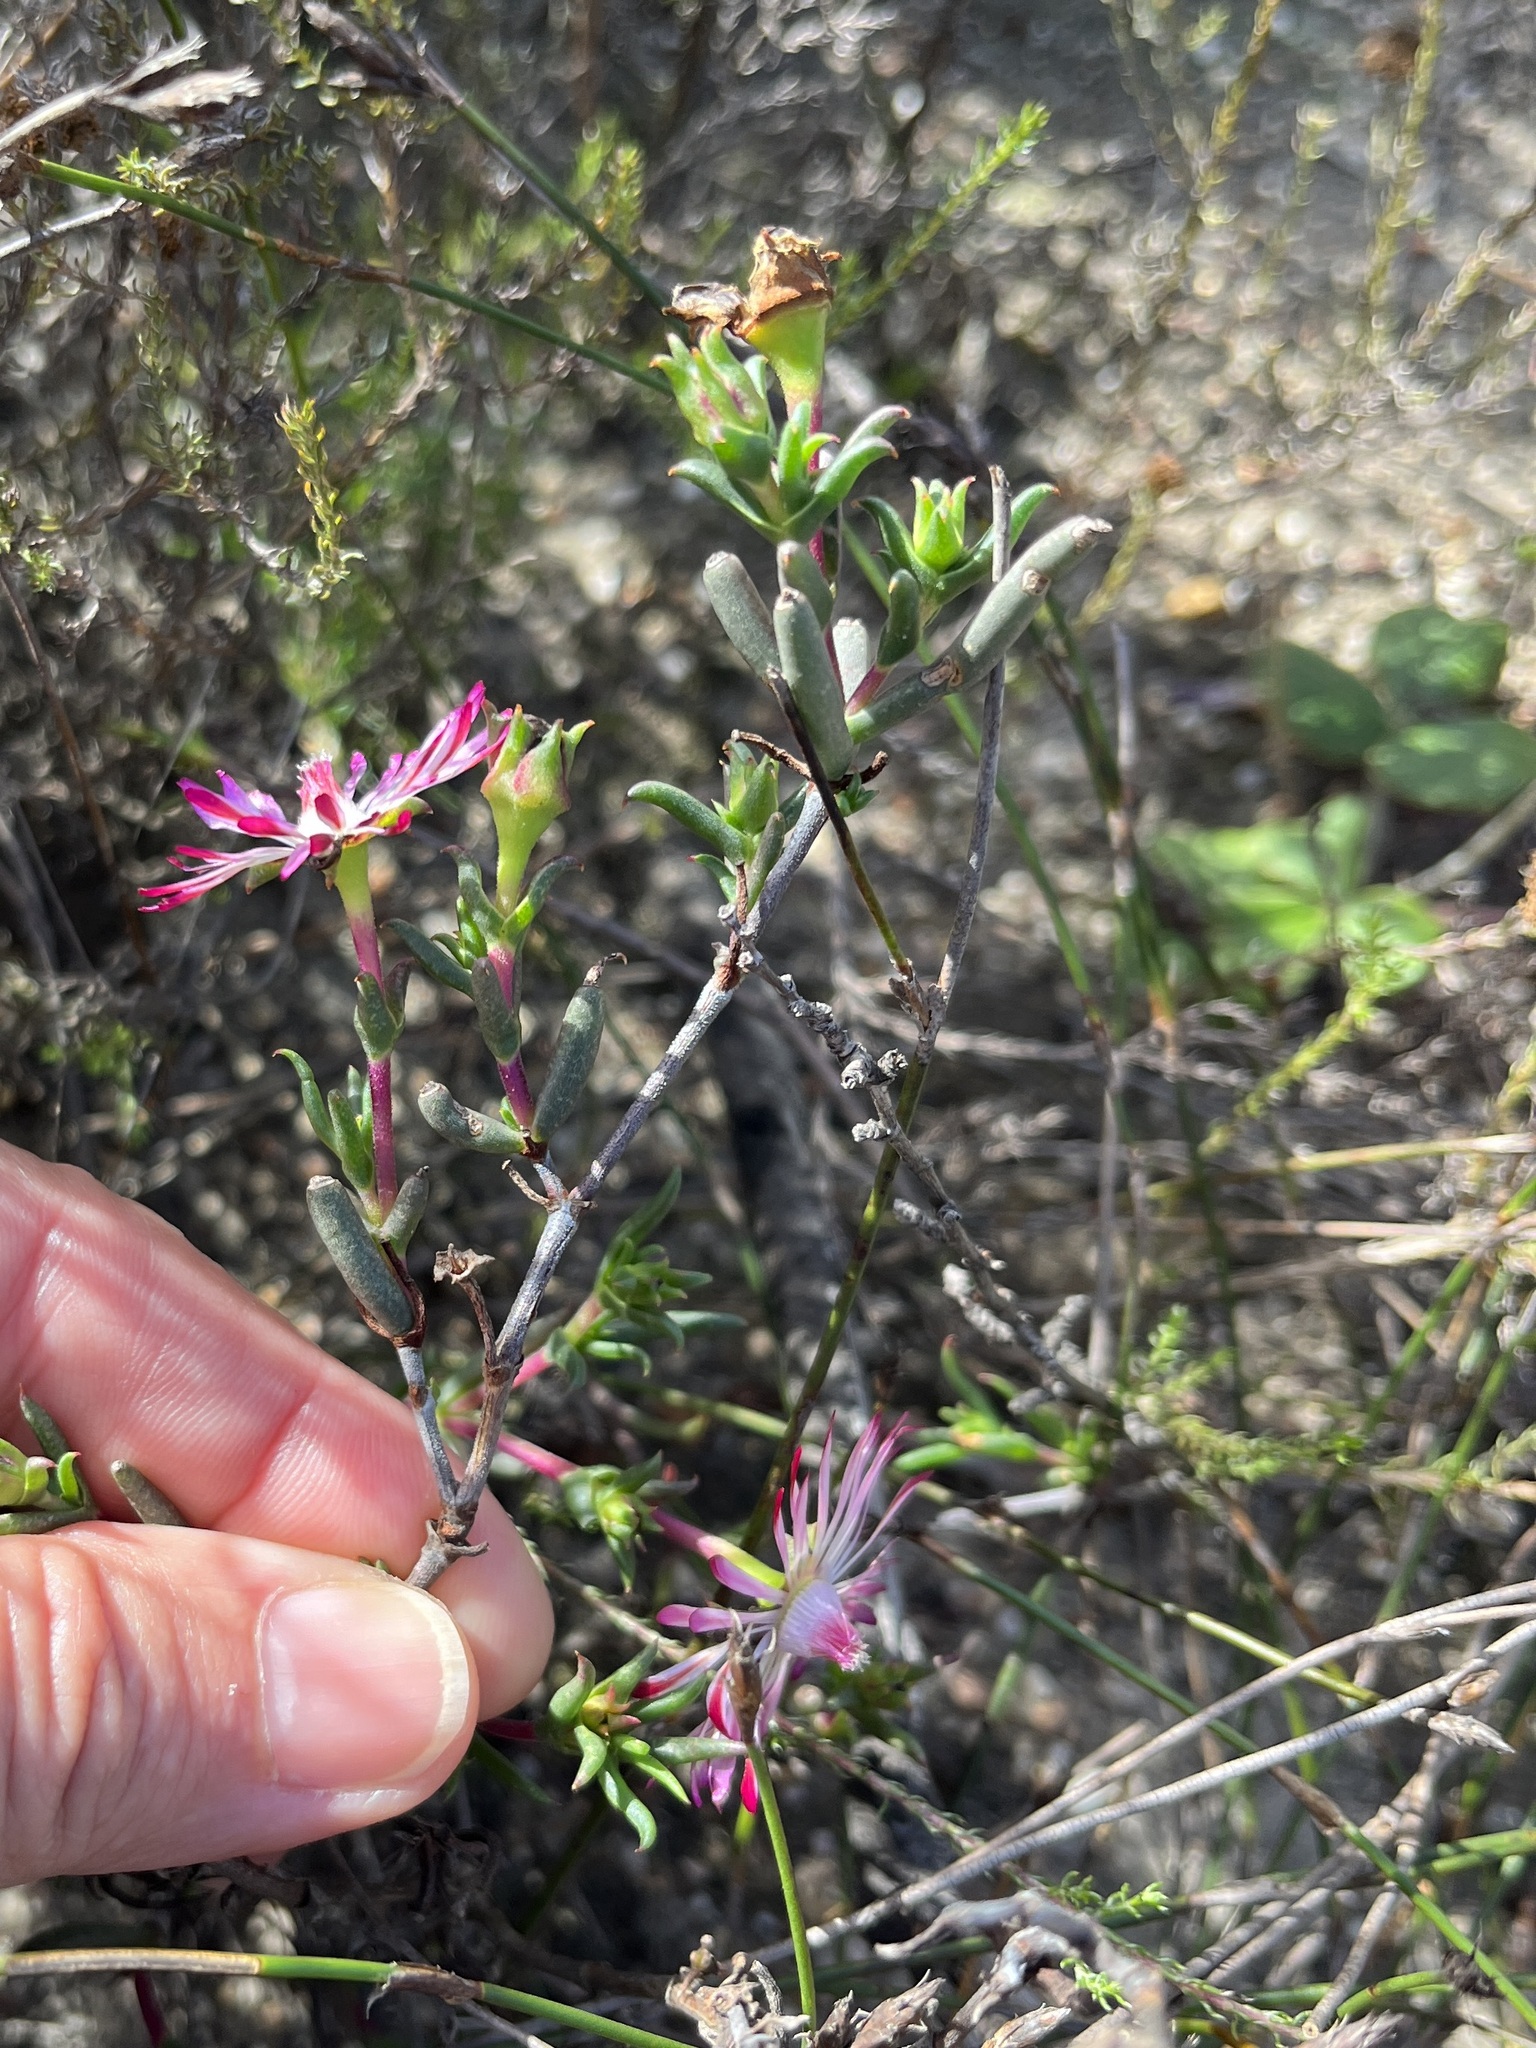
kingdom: Plantae
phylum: Tracheophyta
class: Magnoliopsida
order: Caryophyllales
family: Aizoaceae
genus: Lampranthus
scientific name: Lampranthus spiniformis
